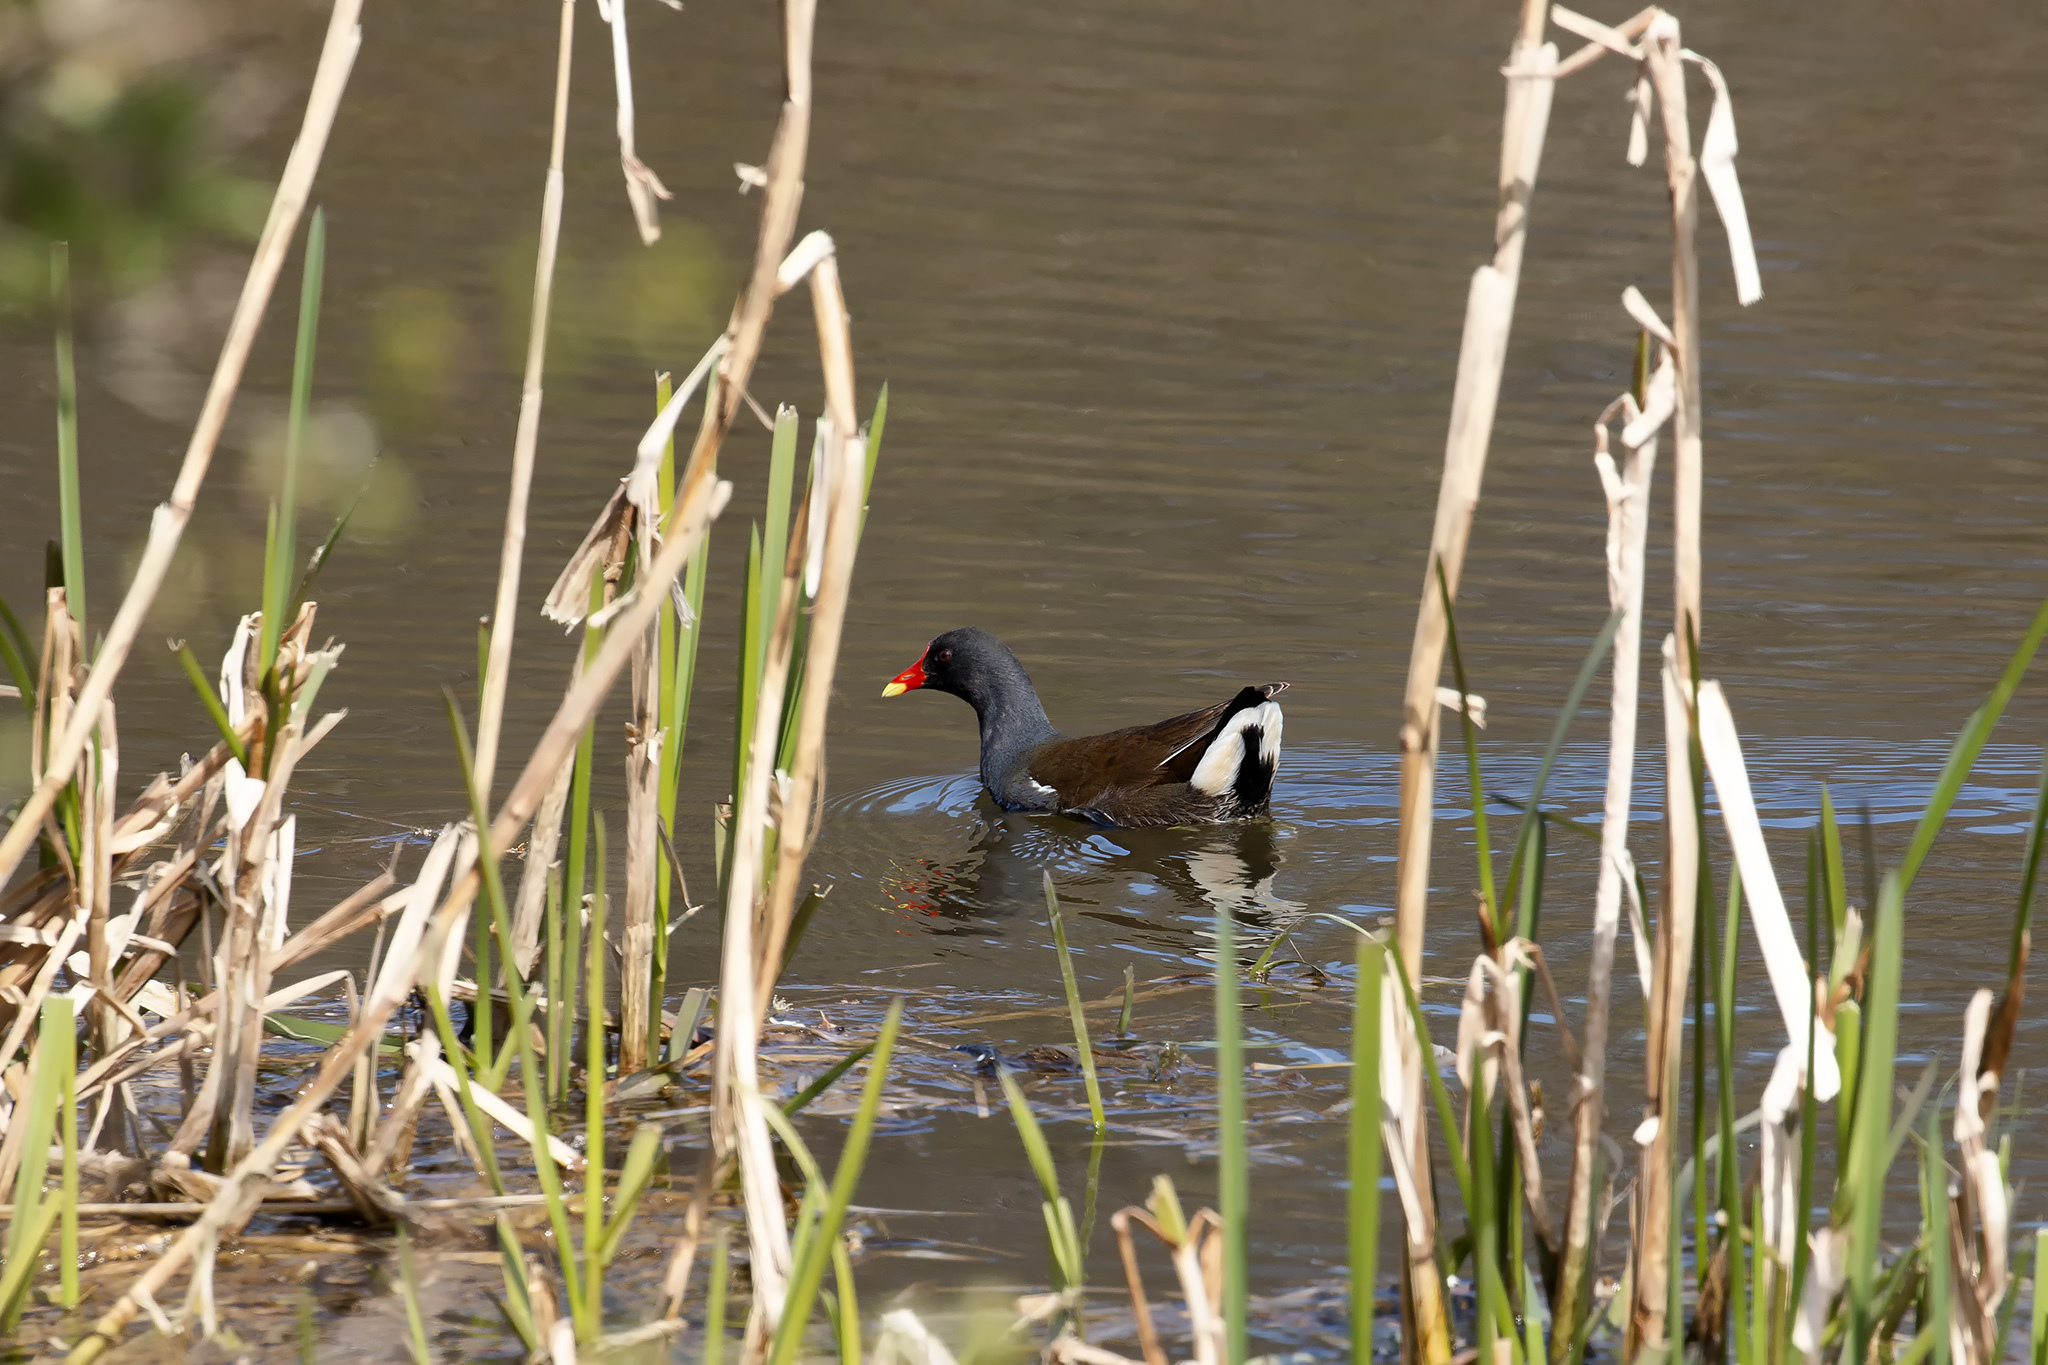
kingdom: Animalia
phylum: Chordata
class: Aves
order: Gruiformes
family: Rallidae
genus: Gallinula
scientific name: Gallinula chloropus
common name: Common moorhen
